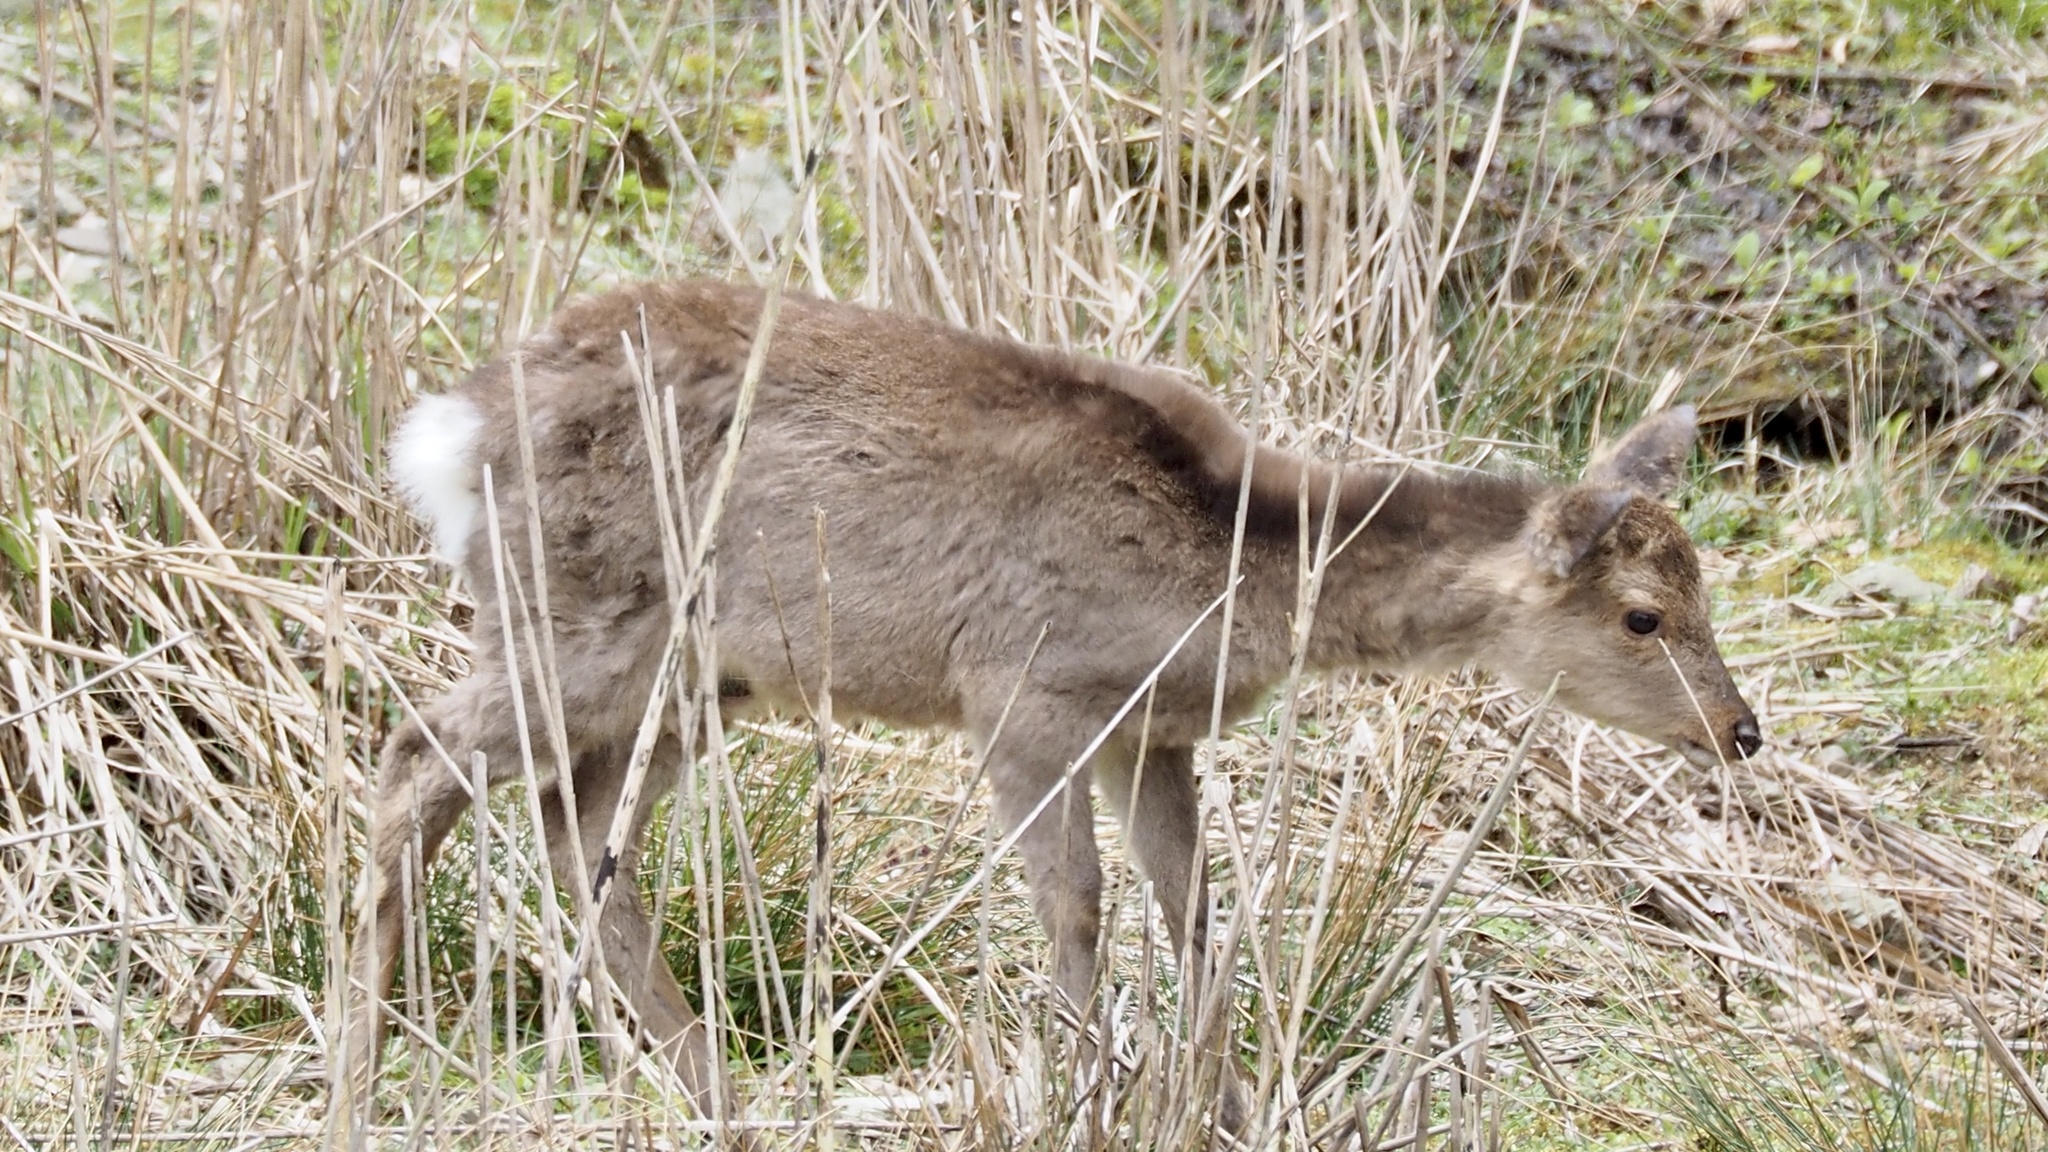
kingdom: Animalia
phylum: Chordata
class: Mammalia
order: Artiodactyla
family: Cervidae
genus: Cervus
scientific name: Cervus nippon
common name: Sika deer
